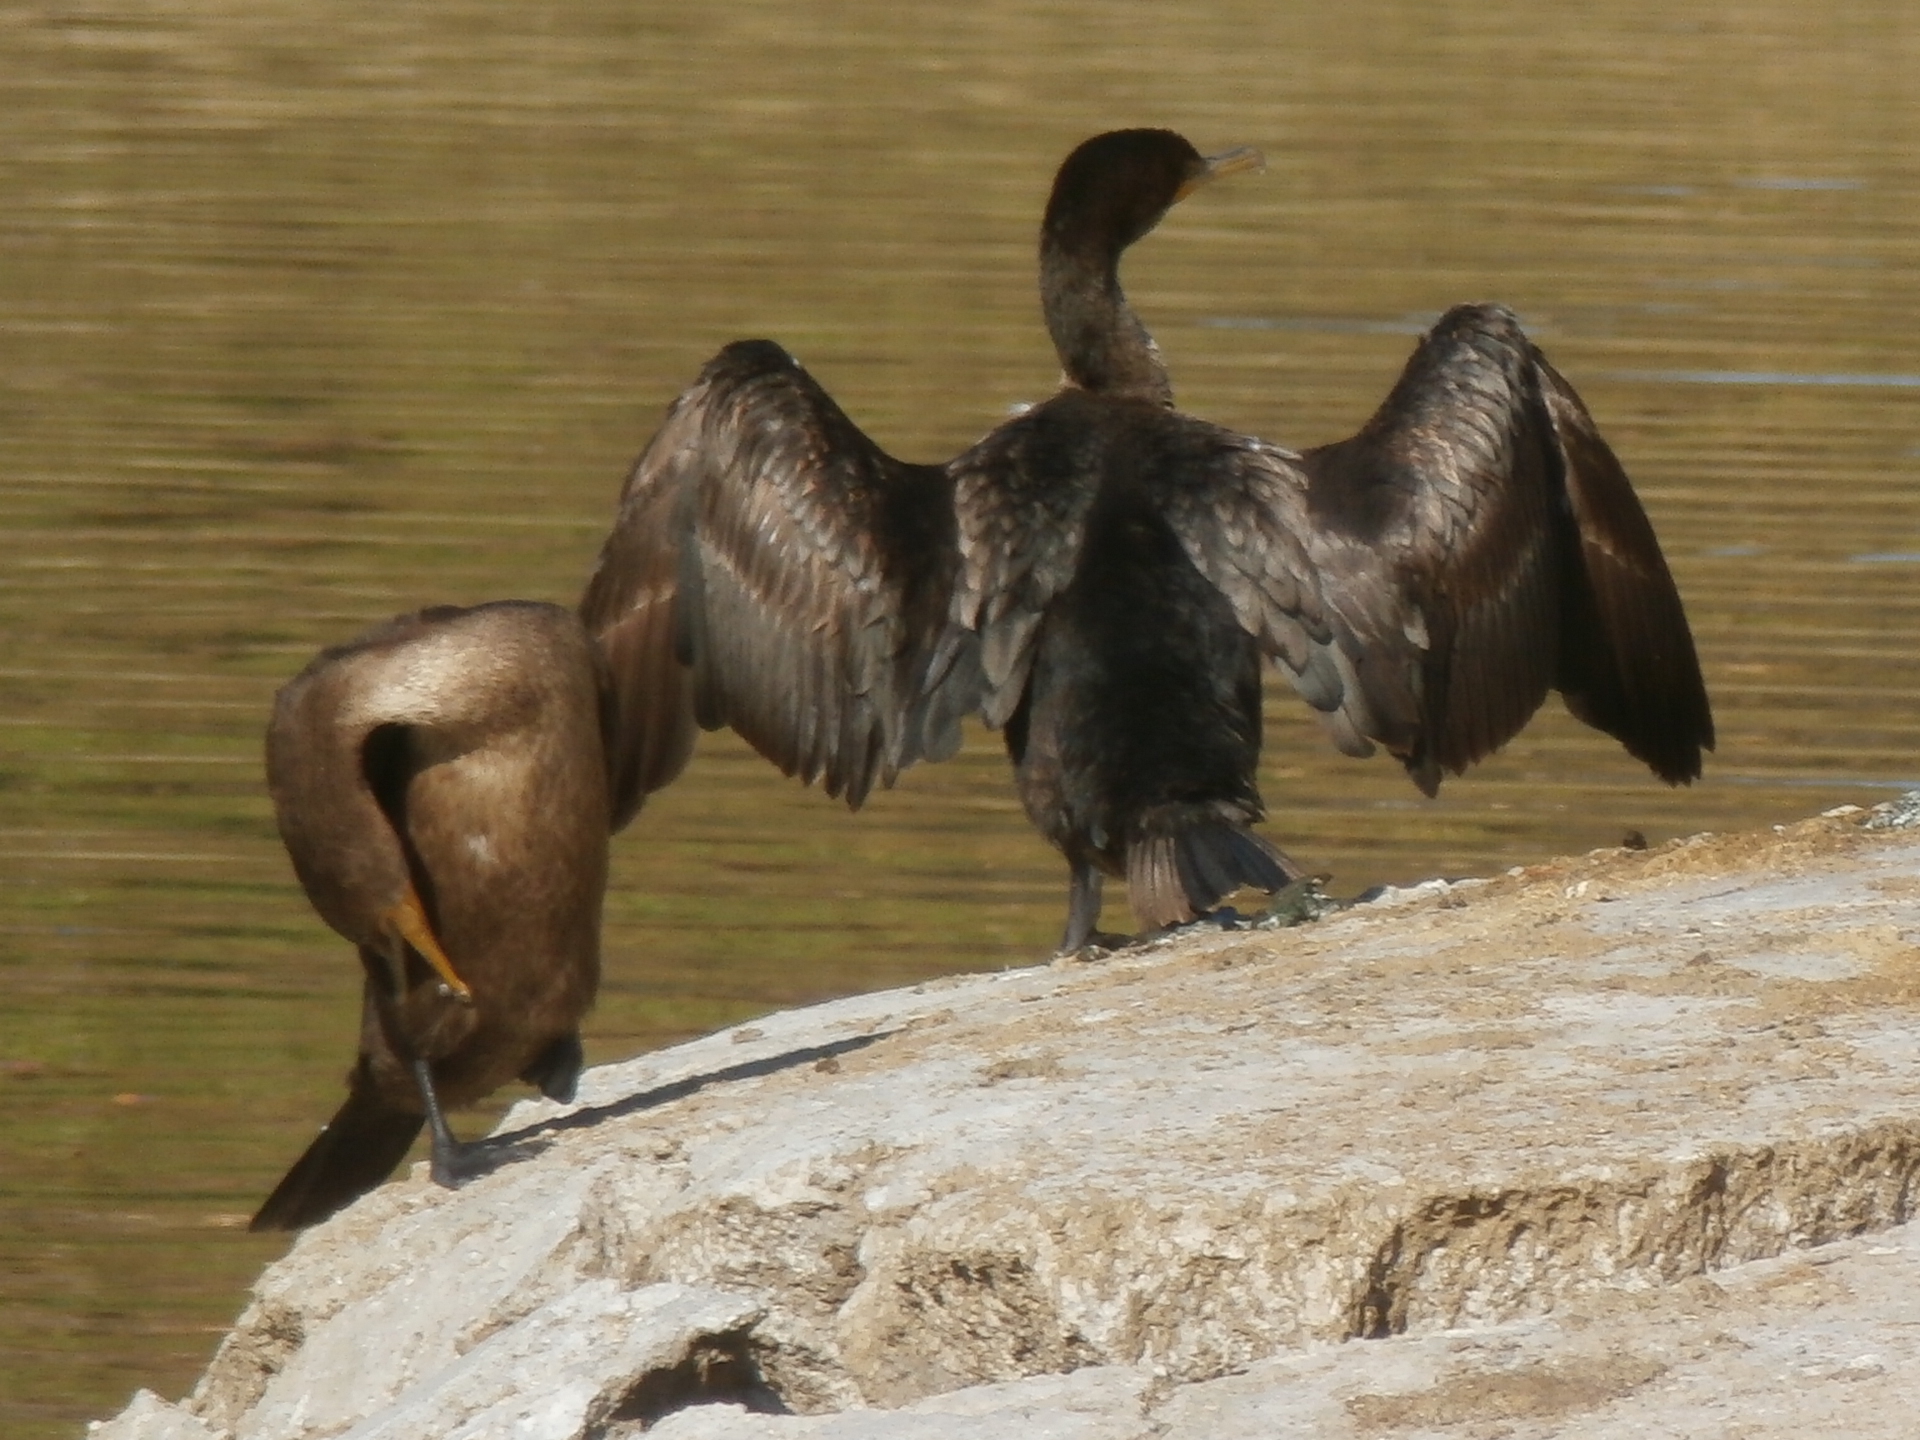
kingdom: Animalia
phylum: Chordata
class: Aves
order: Suliformes
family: Phalacrocoracidae
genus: Phalacrocorax
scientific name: Phalacrocorax auritus
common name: Double-crested cormorant
